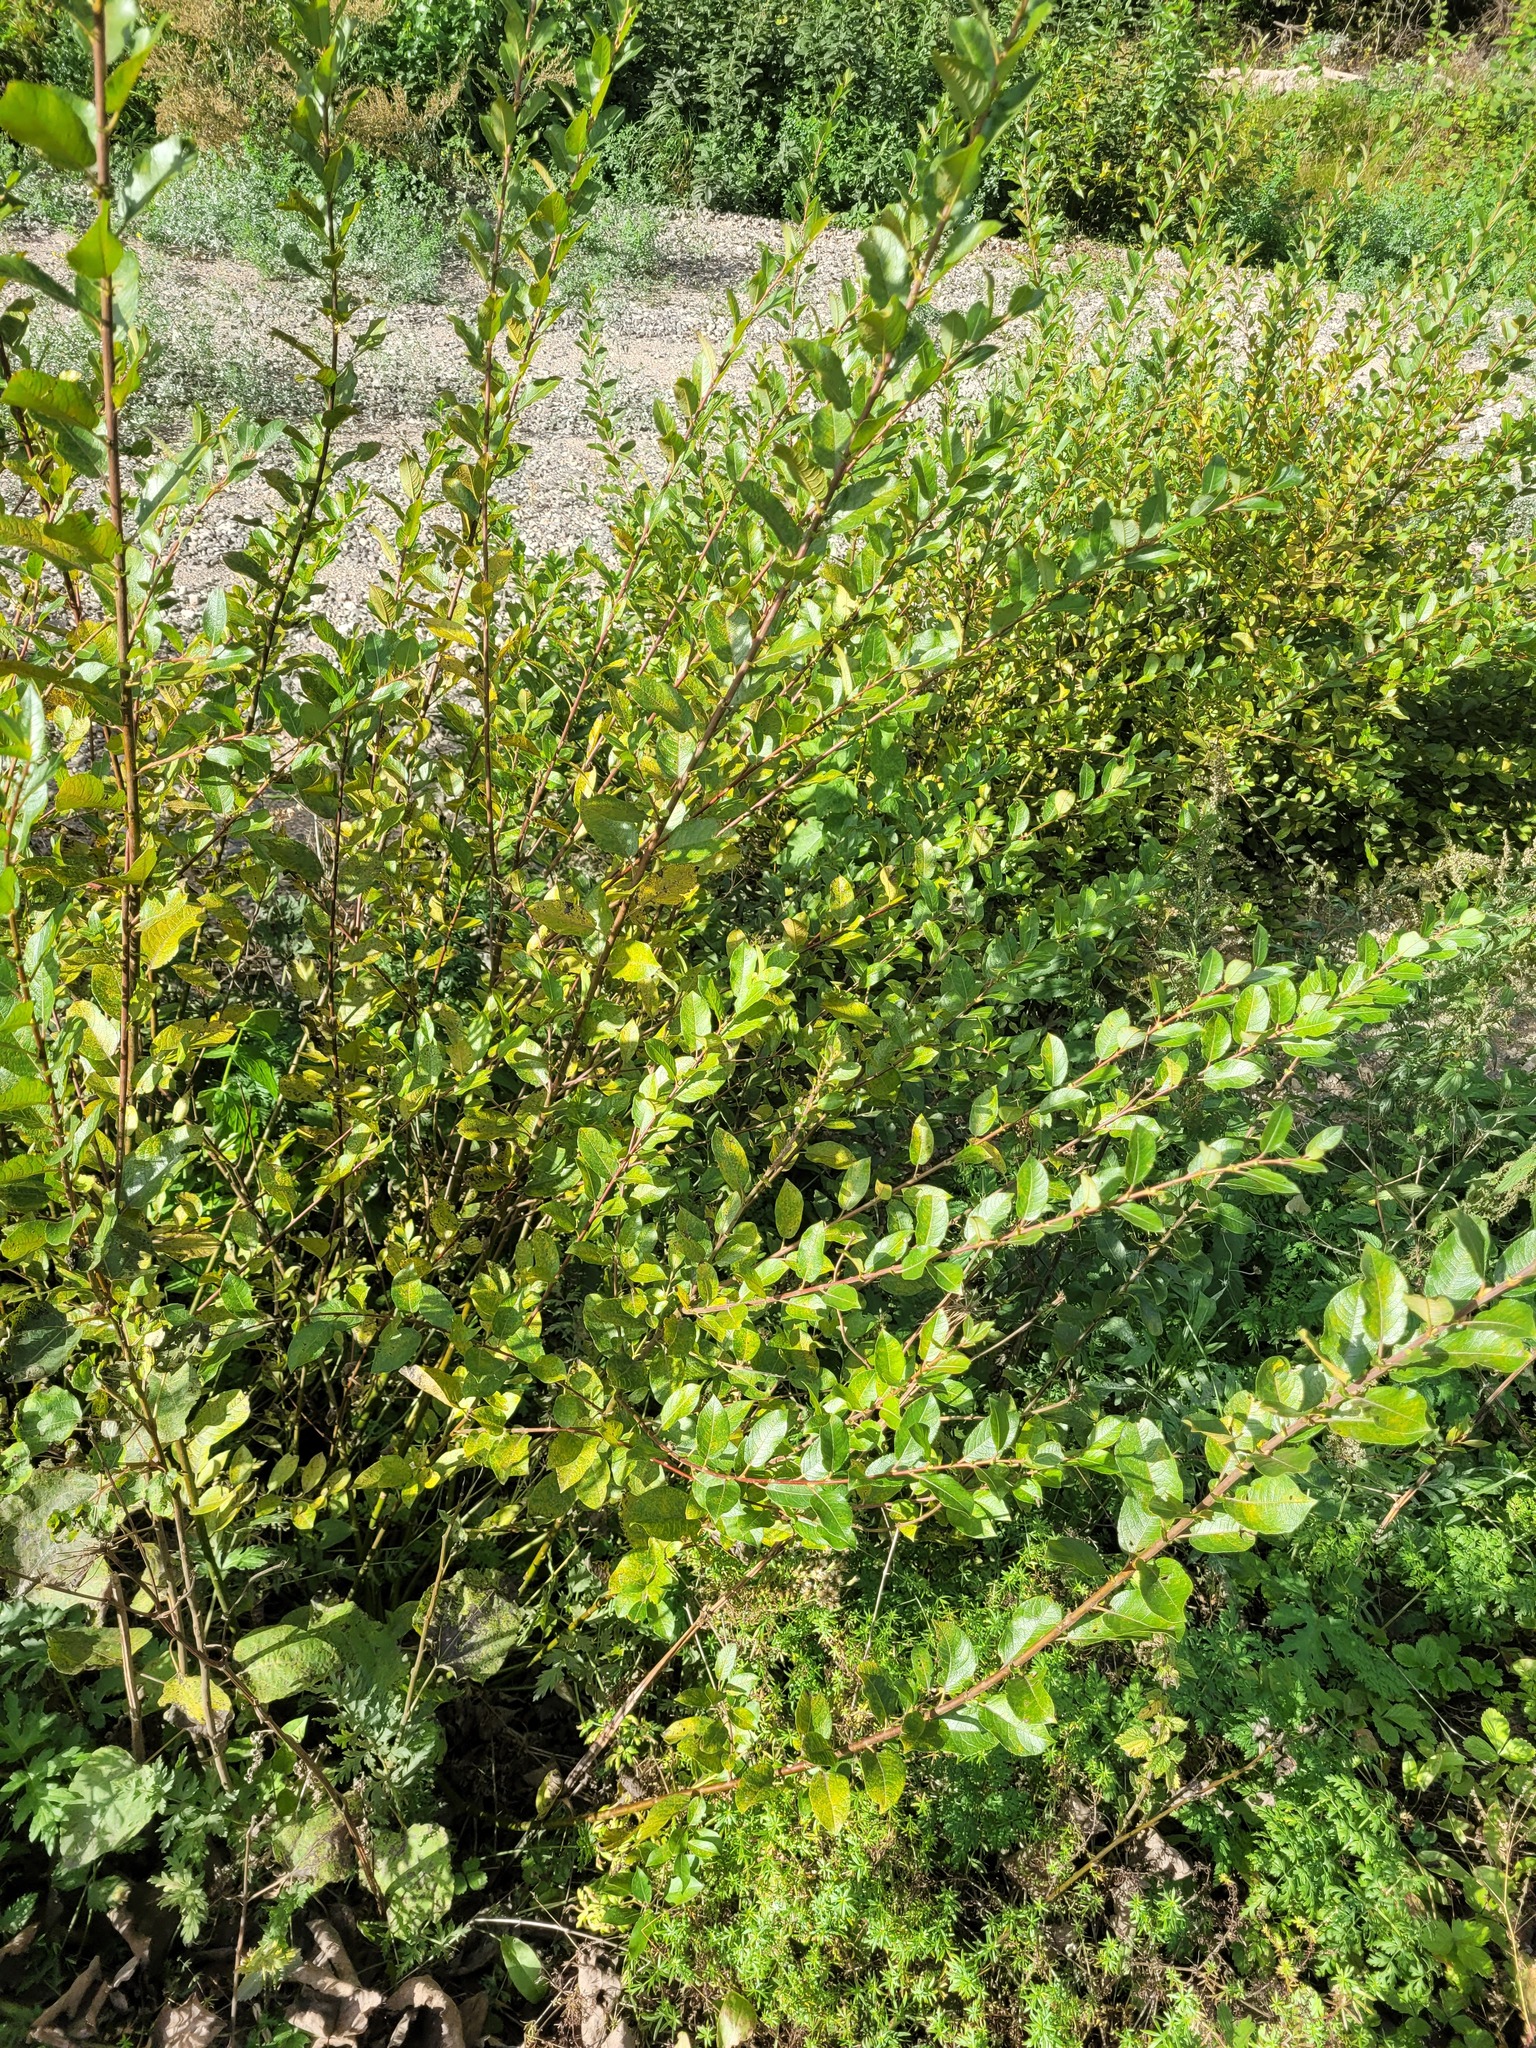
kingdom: Plantae
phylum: Tracheophyta
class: Magnoliopsida
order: Malpighiales
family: Salicaceae
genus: Salix
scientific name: Salix myrsinifolia
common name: Dark-leaved willow
